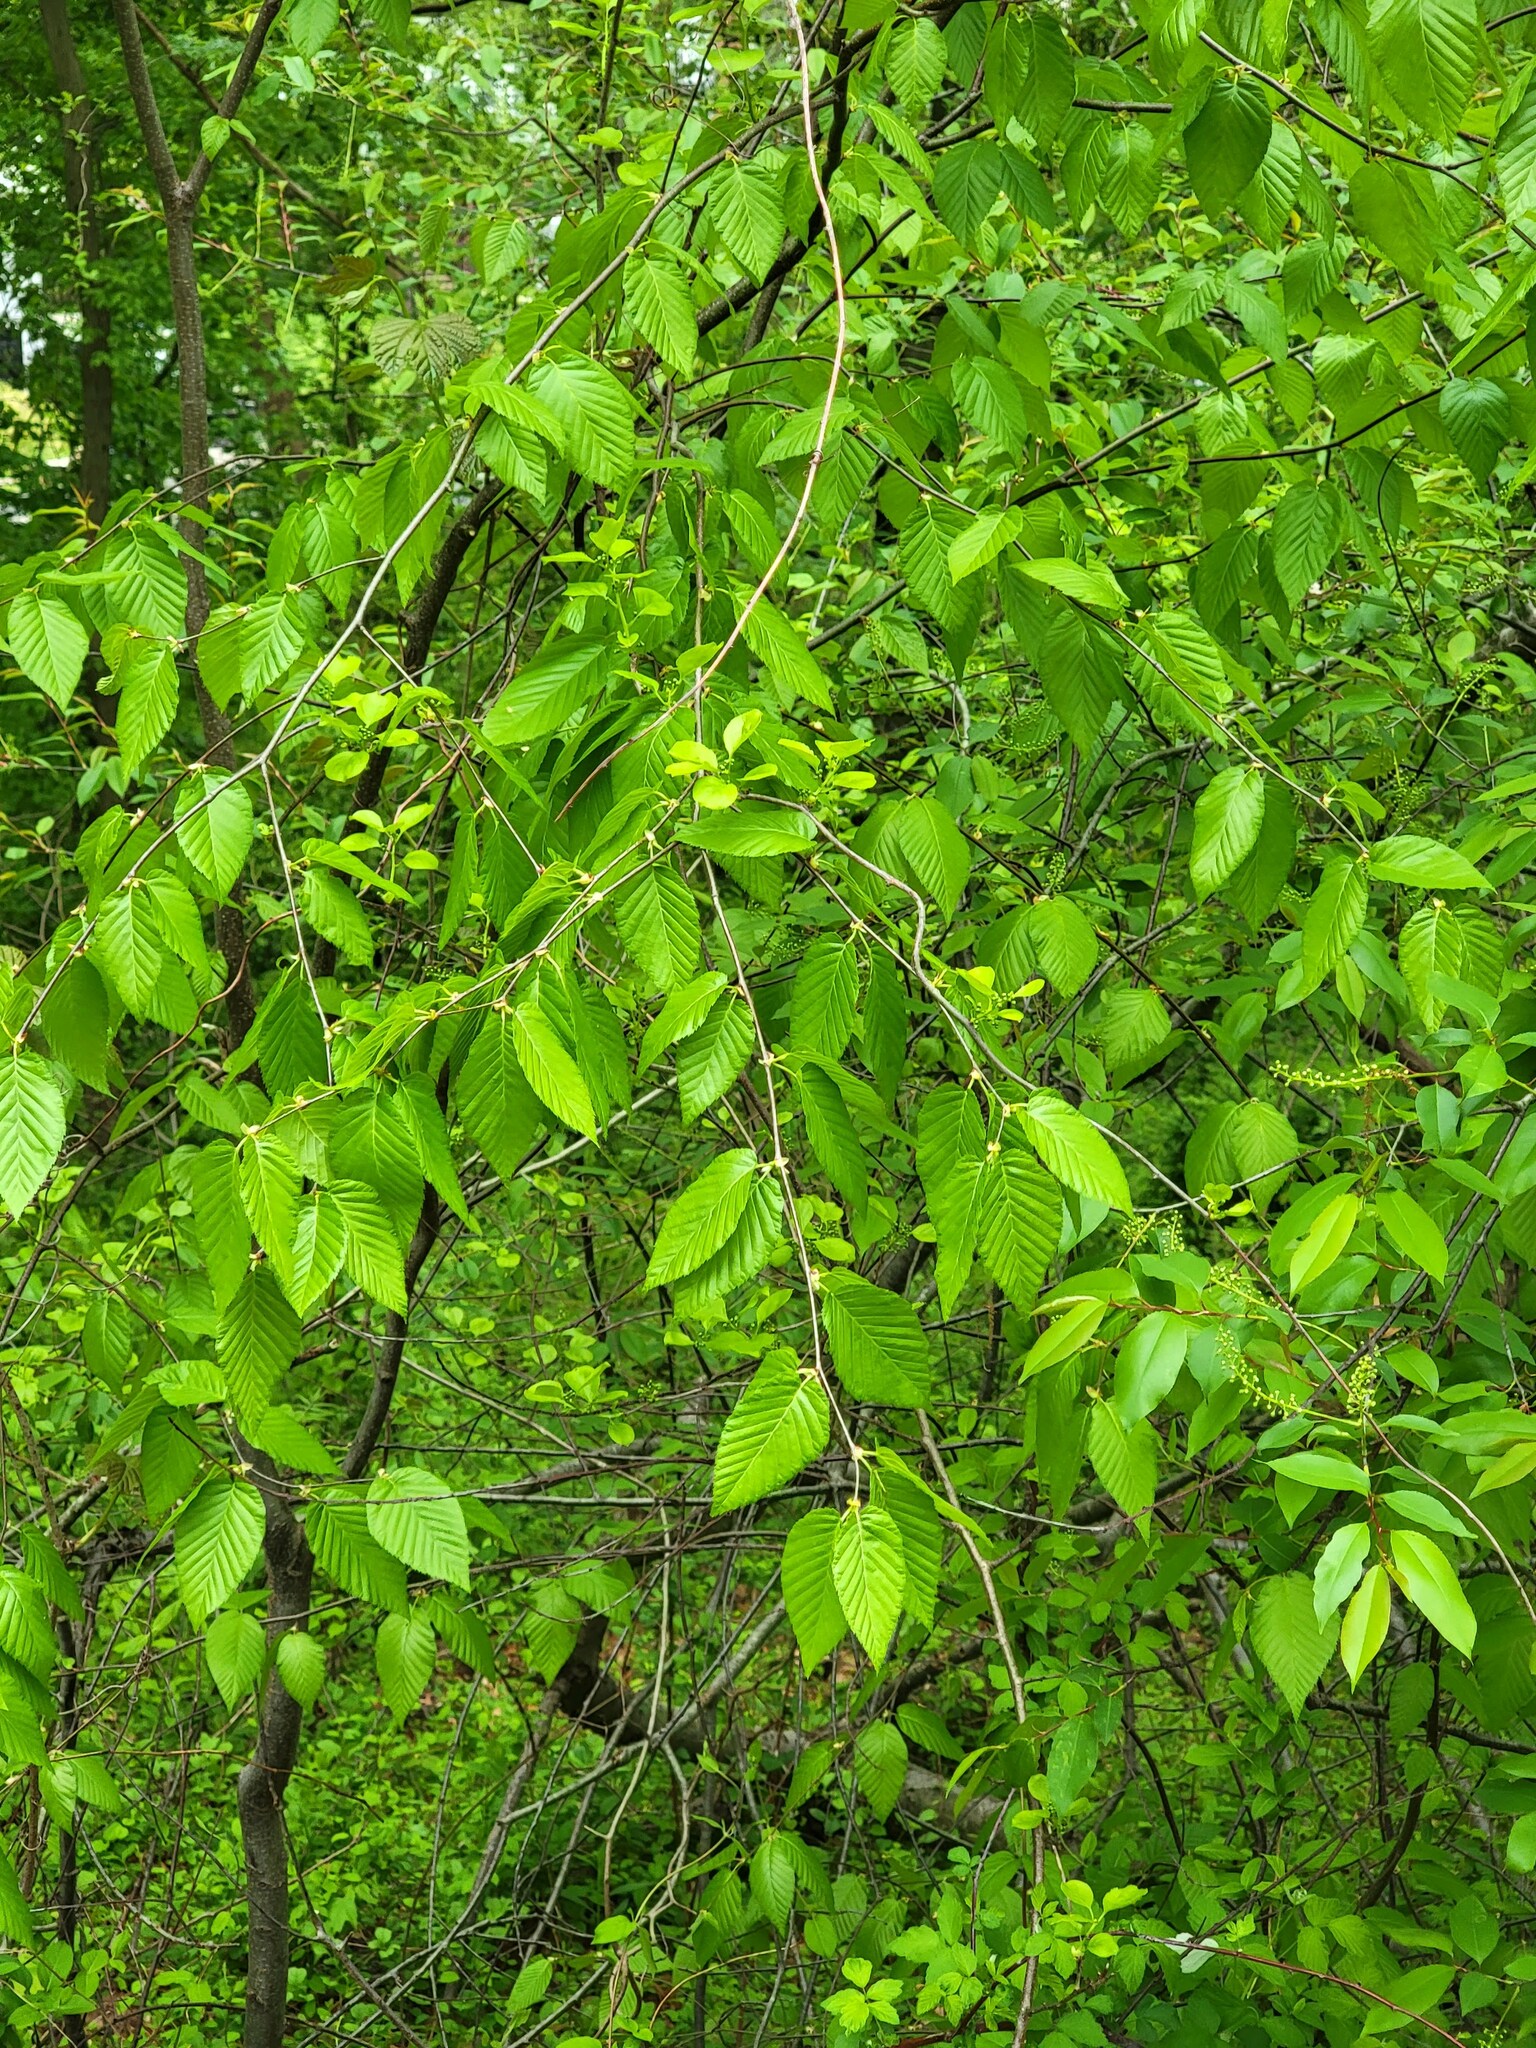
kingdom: Plantae
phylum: Tracheophyta
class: Magnoliopsida
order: Fagales
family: Fagaceae
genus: Fagus
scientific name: Fagus grandifolia
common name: American beech
